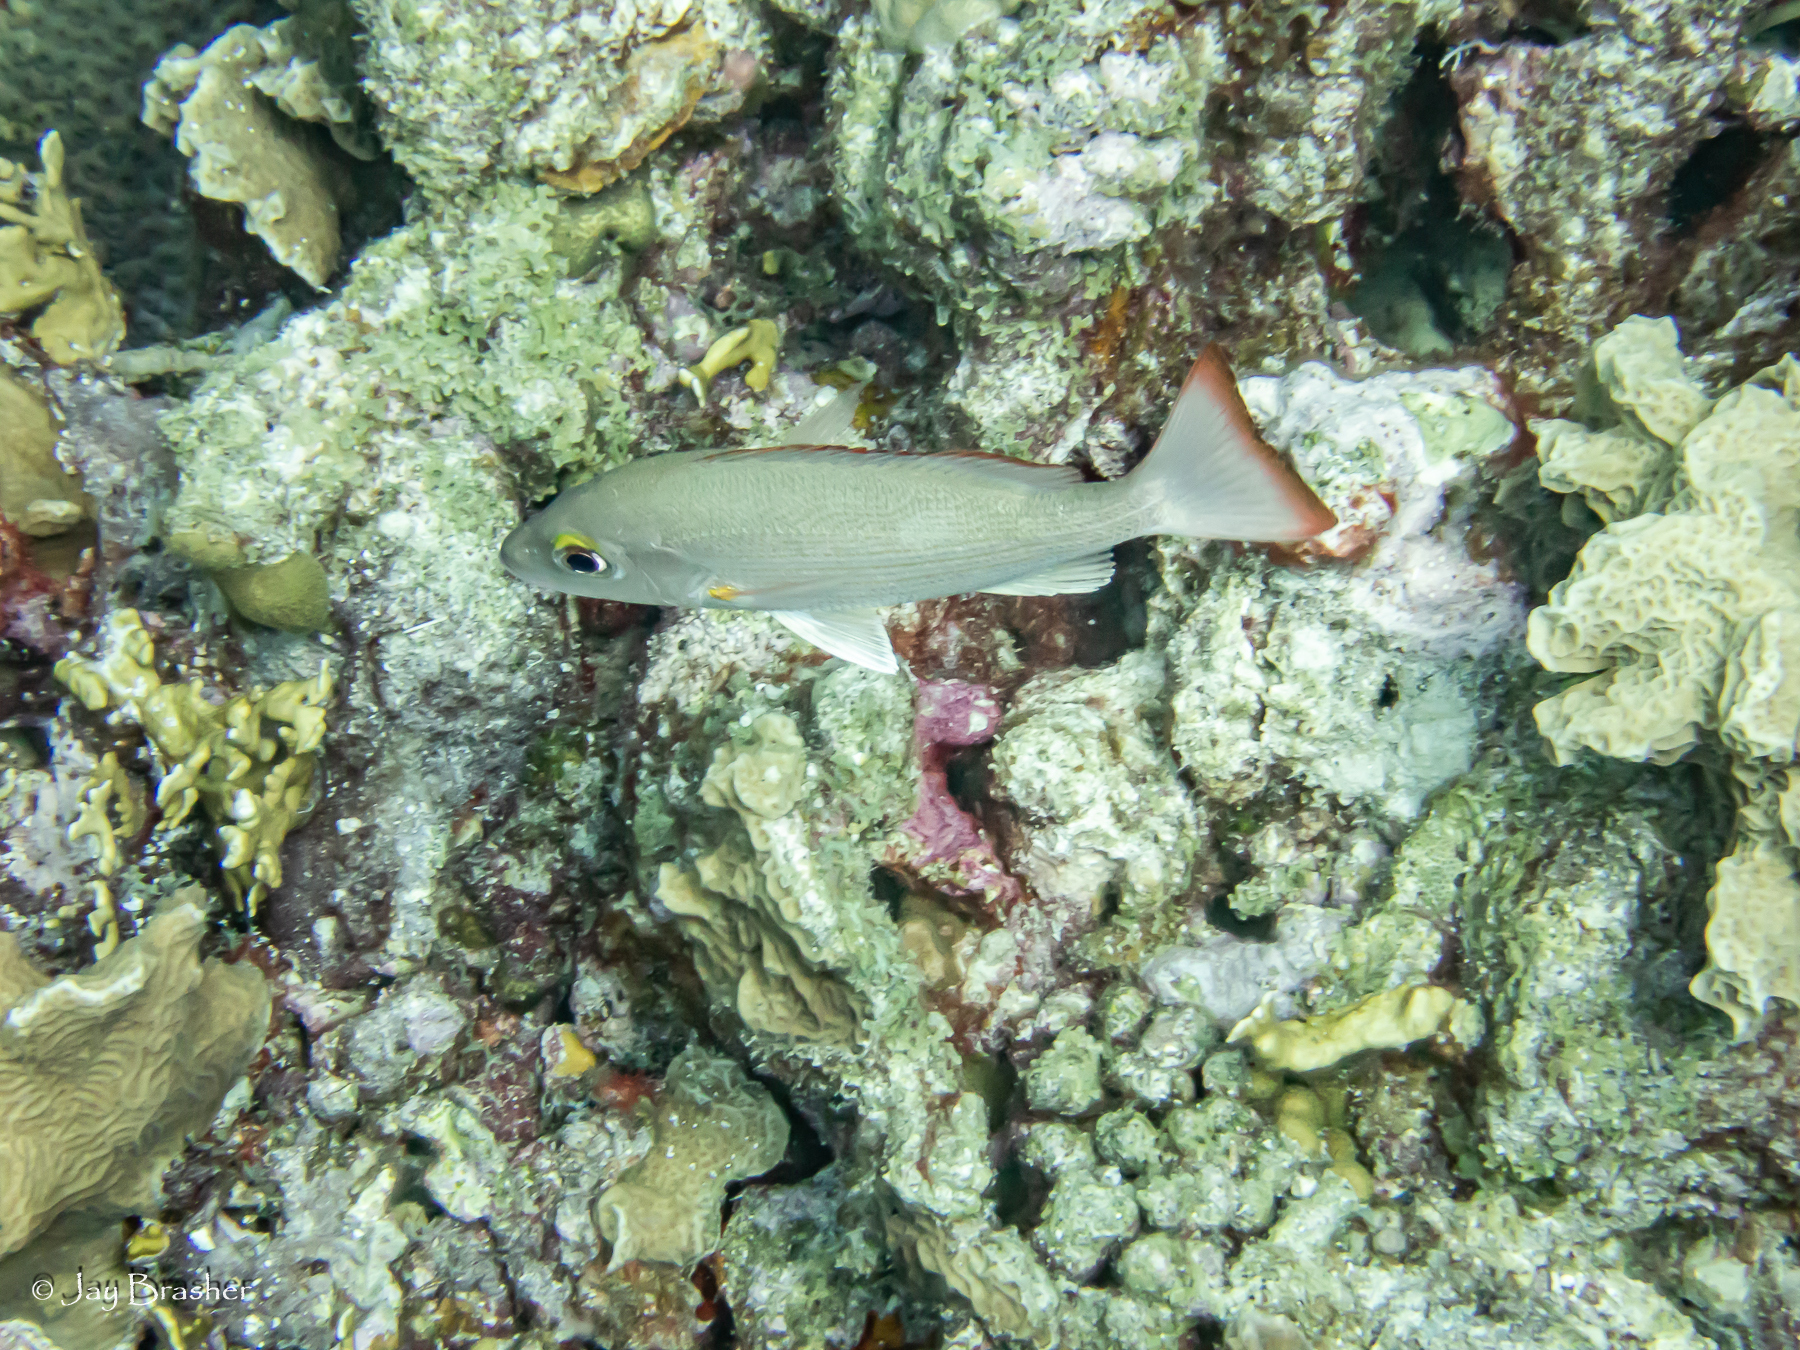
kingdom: Animalia
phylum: Chordata
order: Perciformes
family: Lutjanidae
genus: Lutjanus
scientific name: Lutjanus mahogoni
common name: Spot snapper
